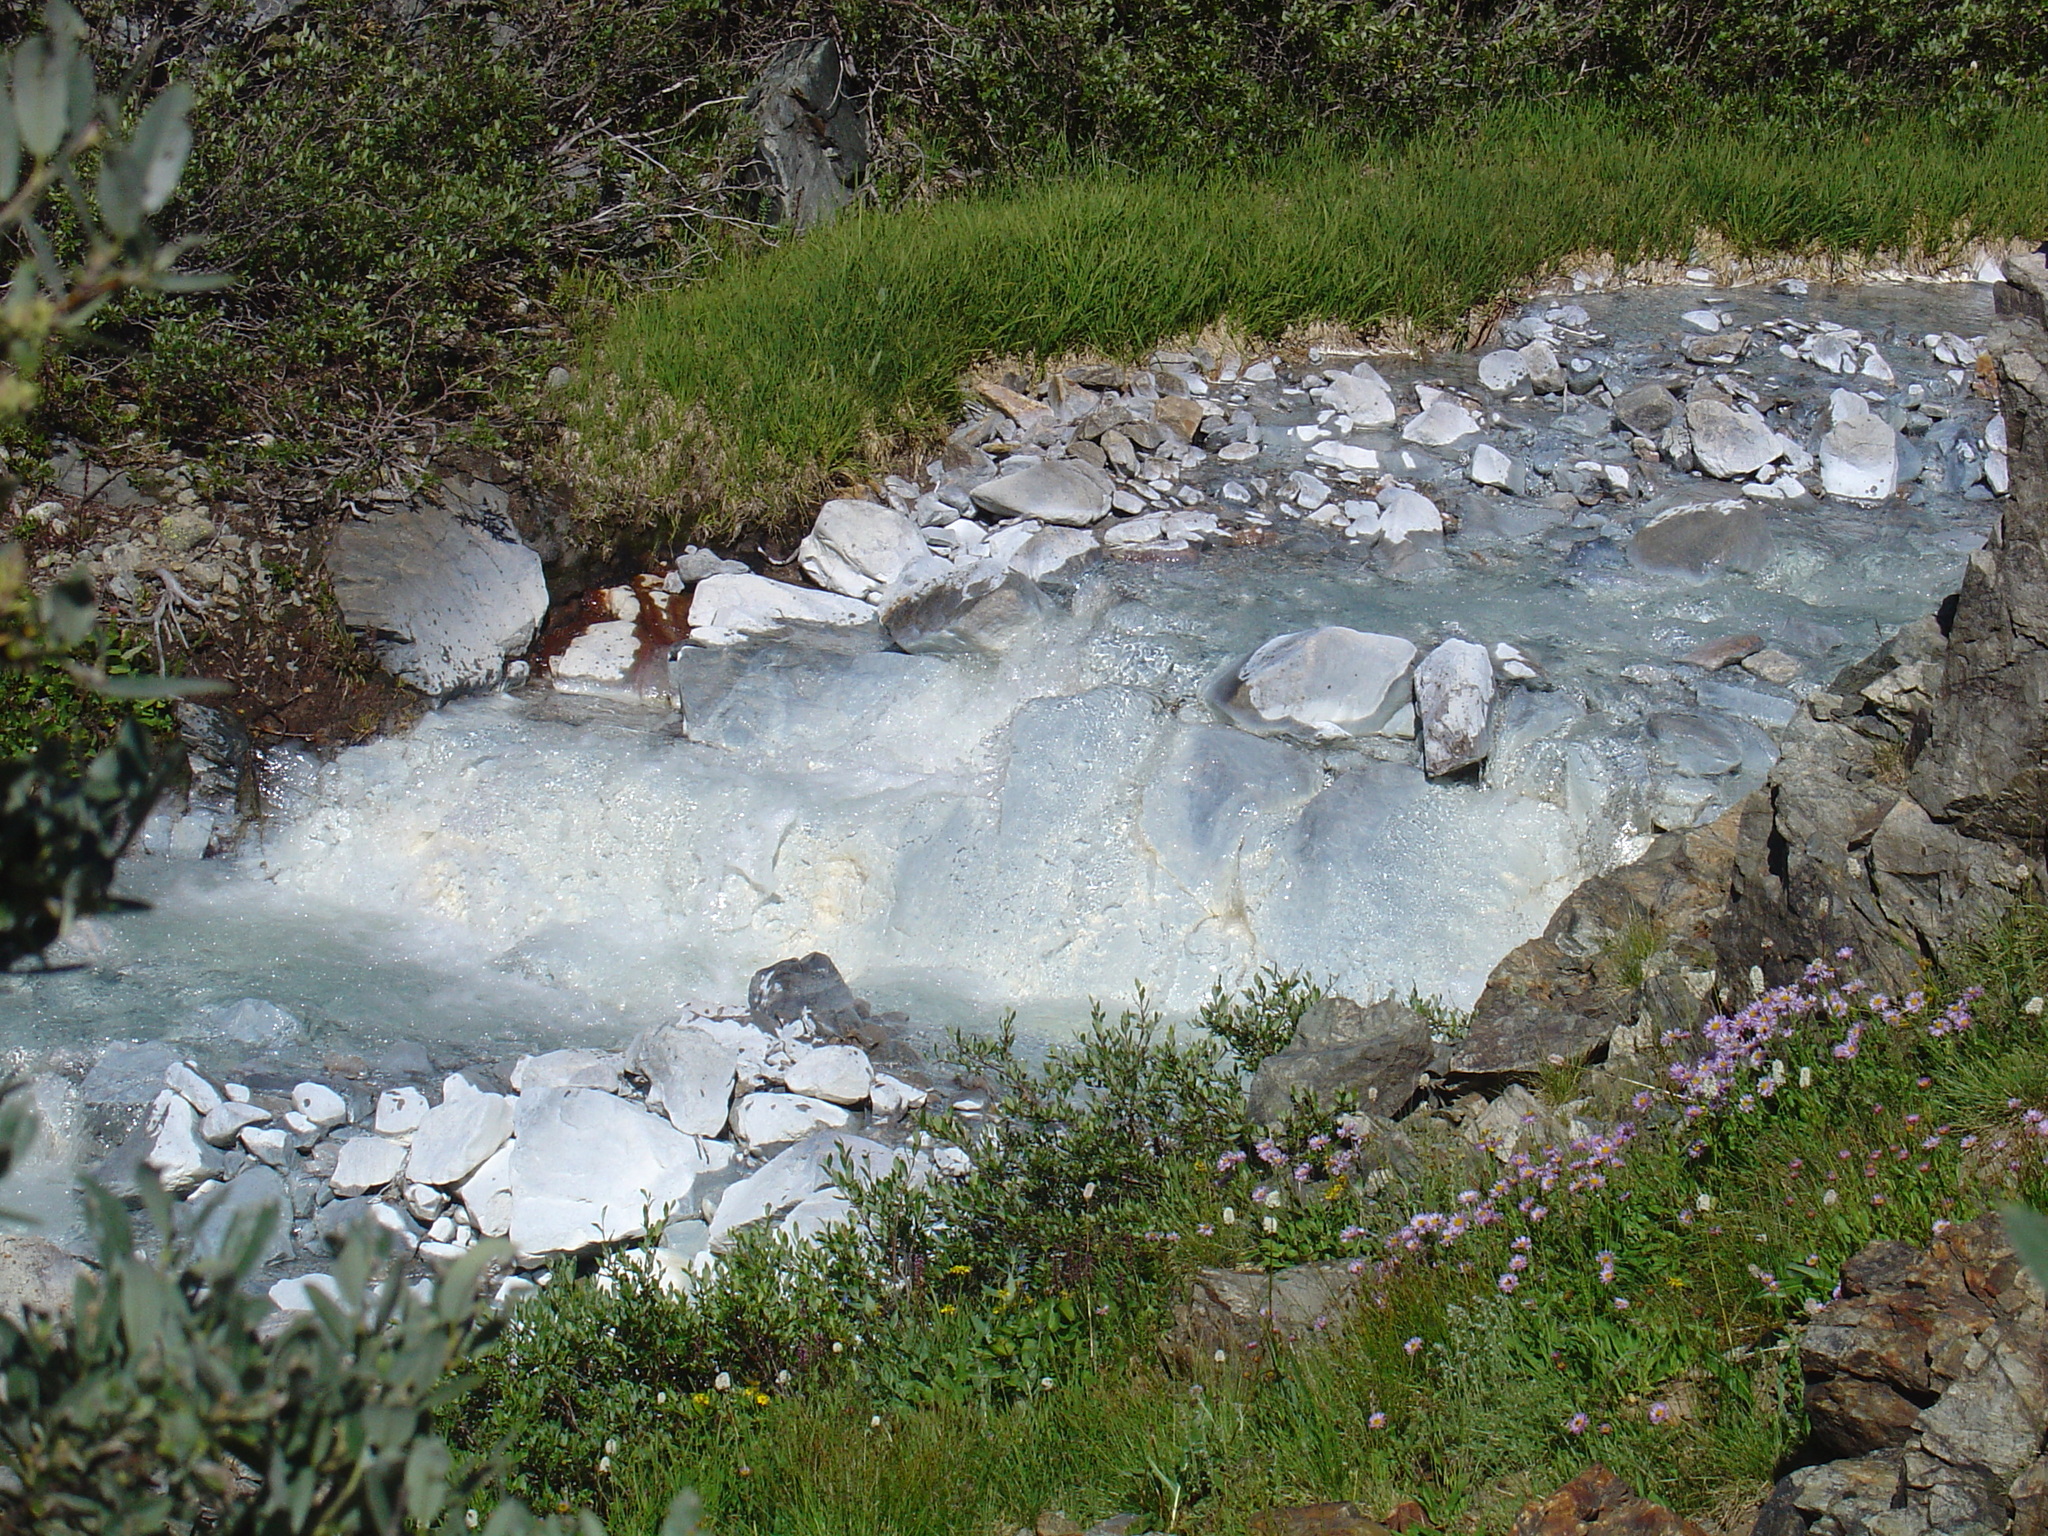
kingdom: Plantae
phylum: Tracheophyta
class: Magnoliopsida
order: Caryophyllales
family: Polygonaceae
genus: Bistorta
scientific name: Bistorta bistortoides
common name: American bistort
